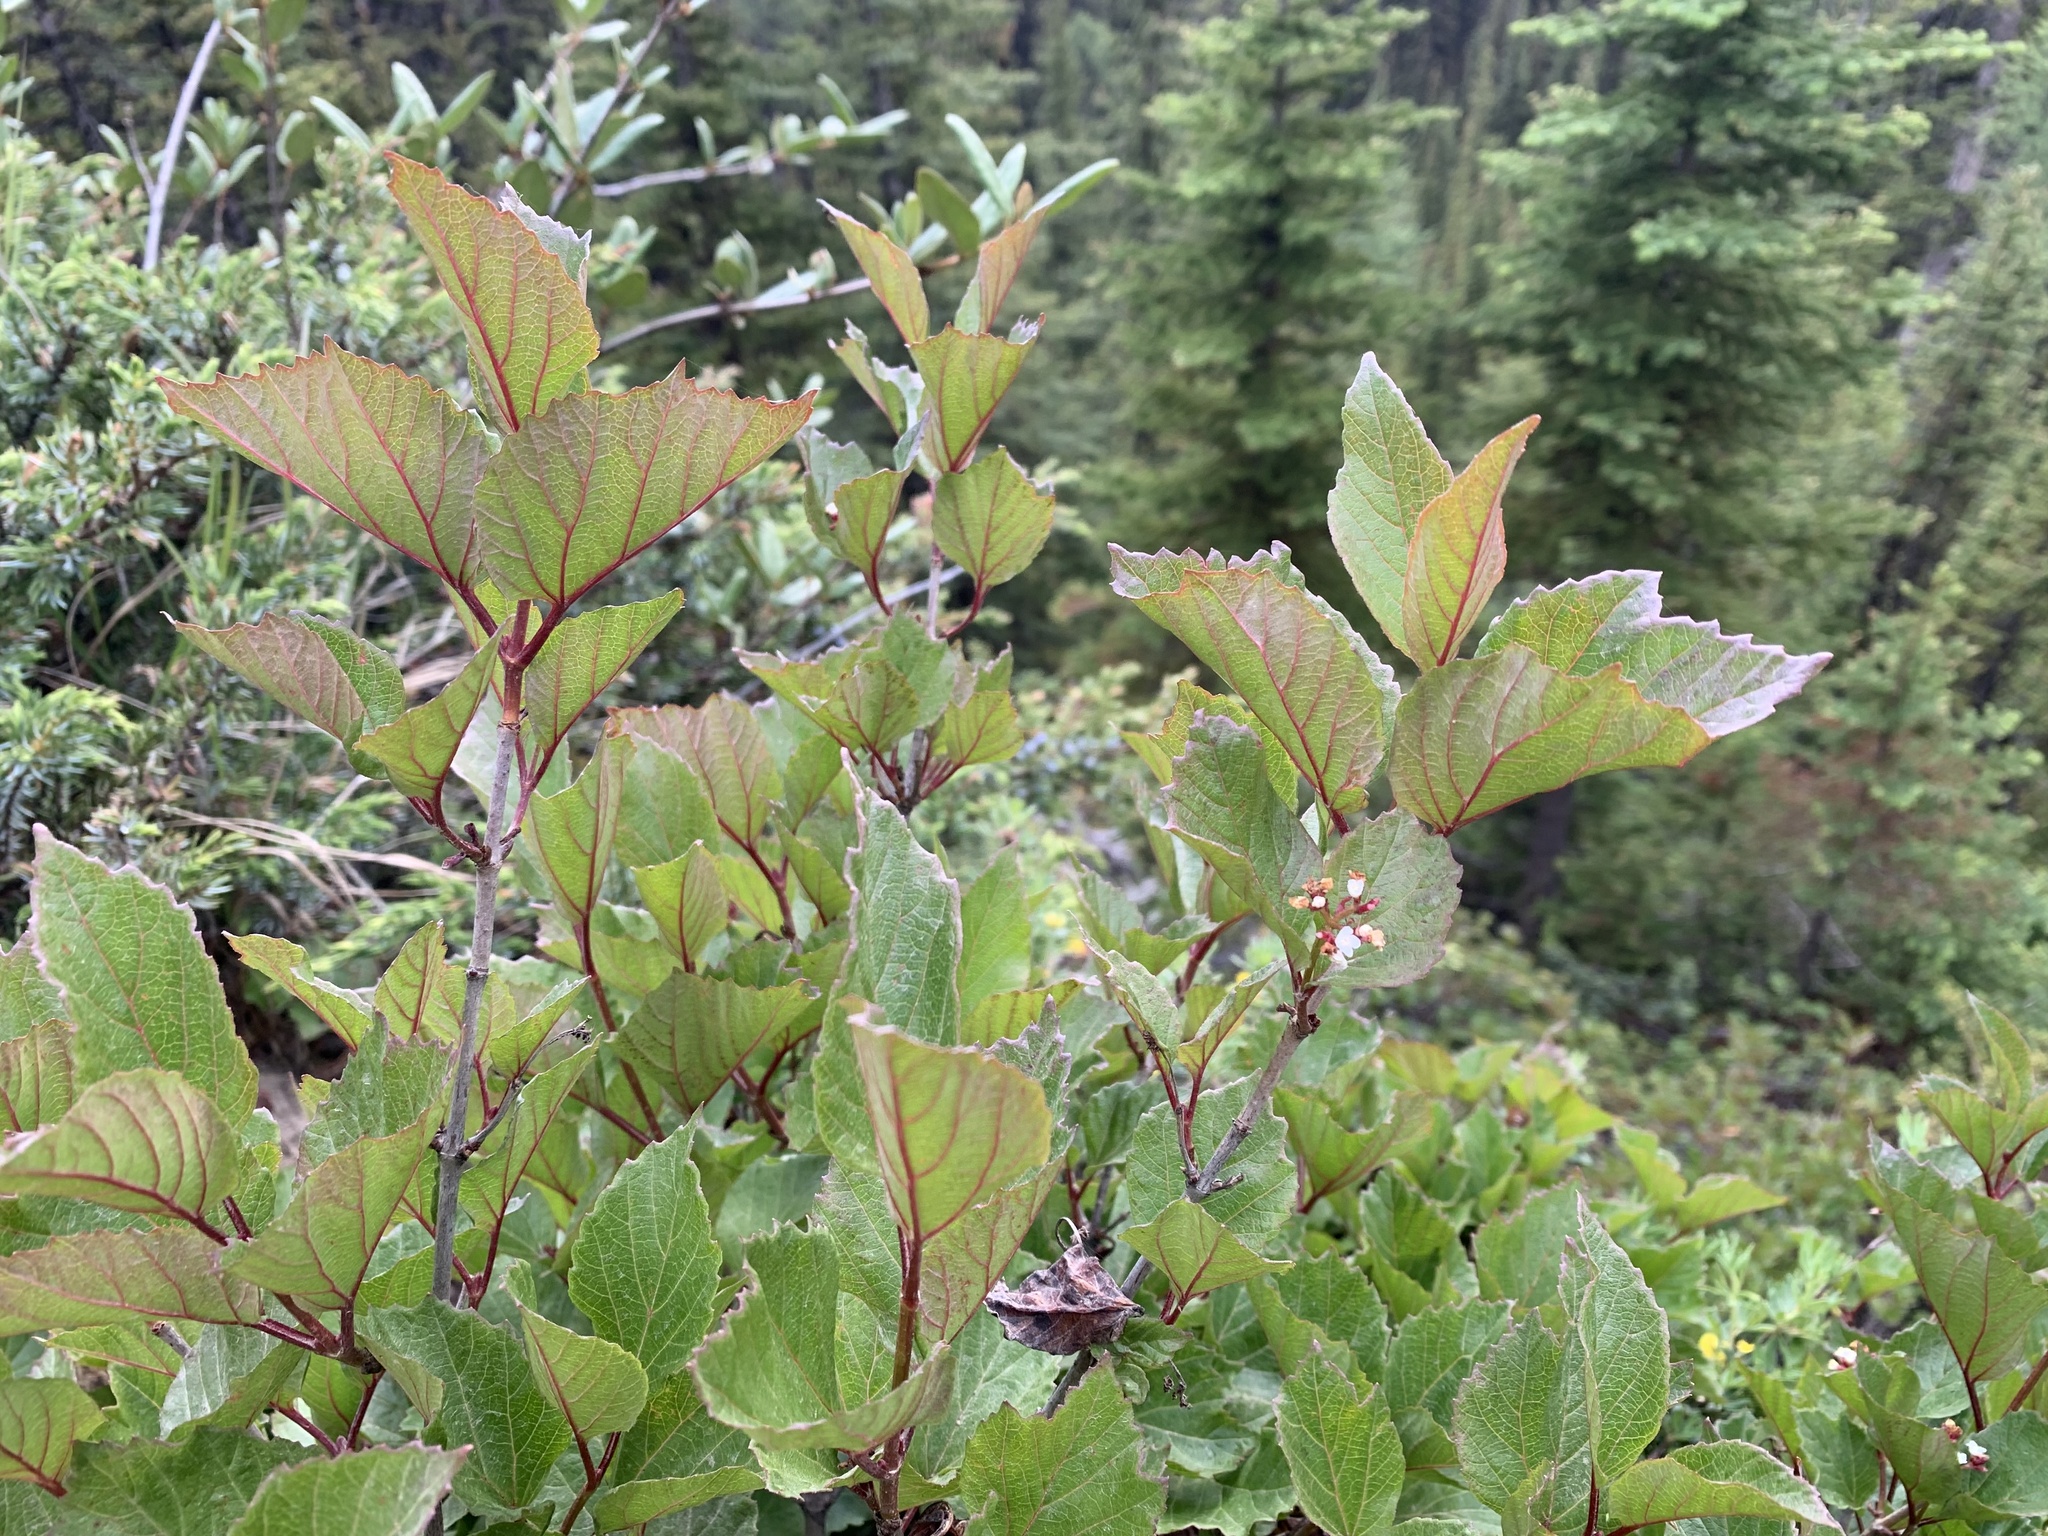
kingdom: Plantae
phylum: Tracheophyta
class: Magnoliopsida
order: Dipsacales
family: Viburnaceae
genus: Viburnum
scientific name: Viburnum edule
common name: Mooseberry
